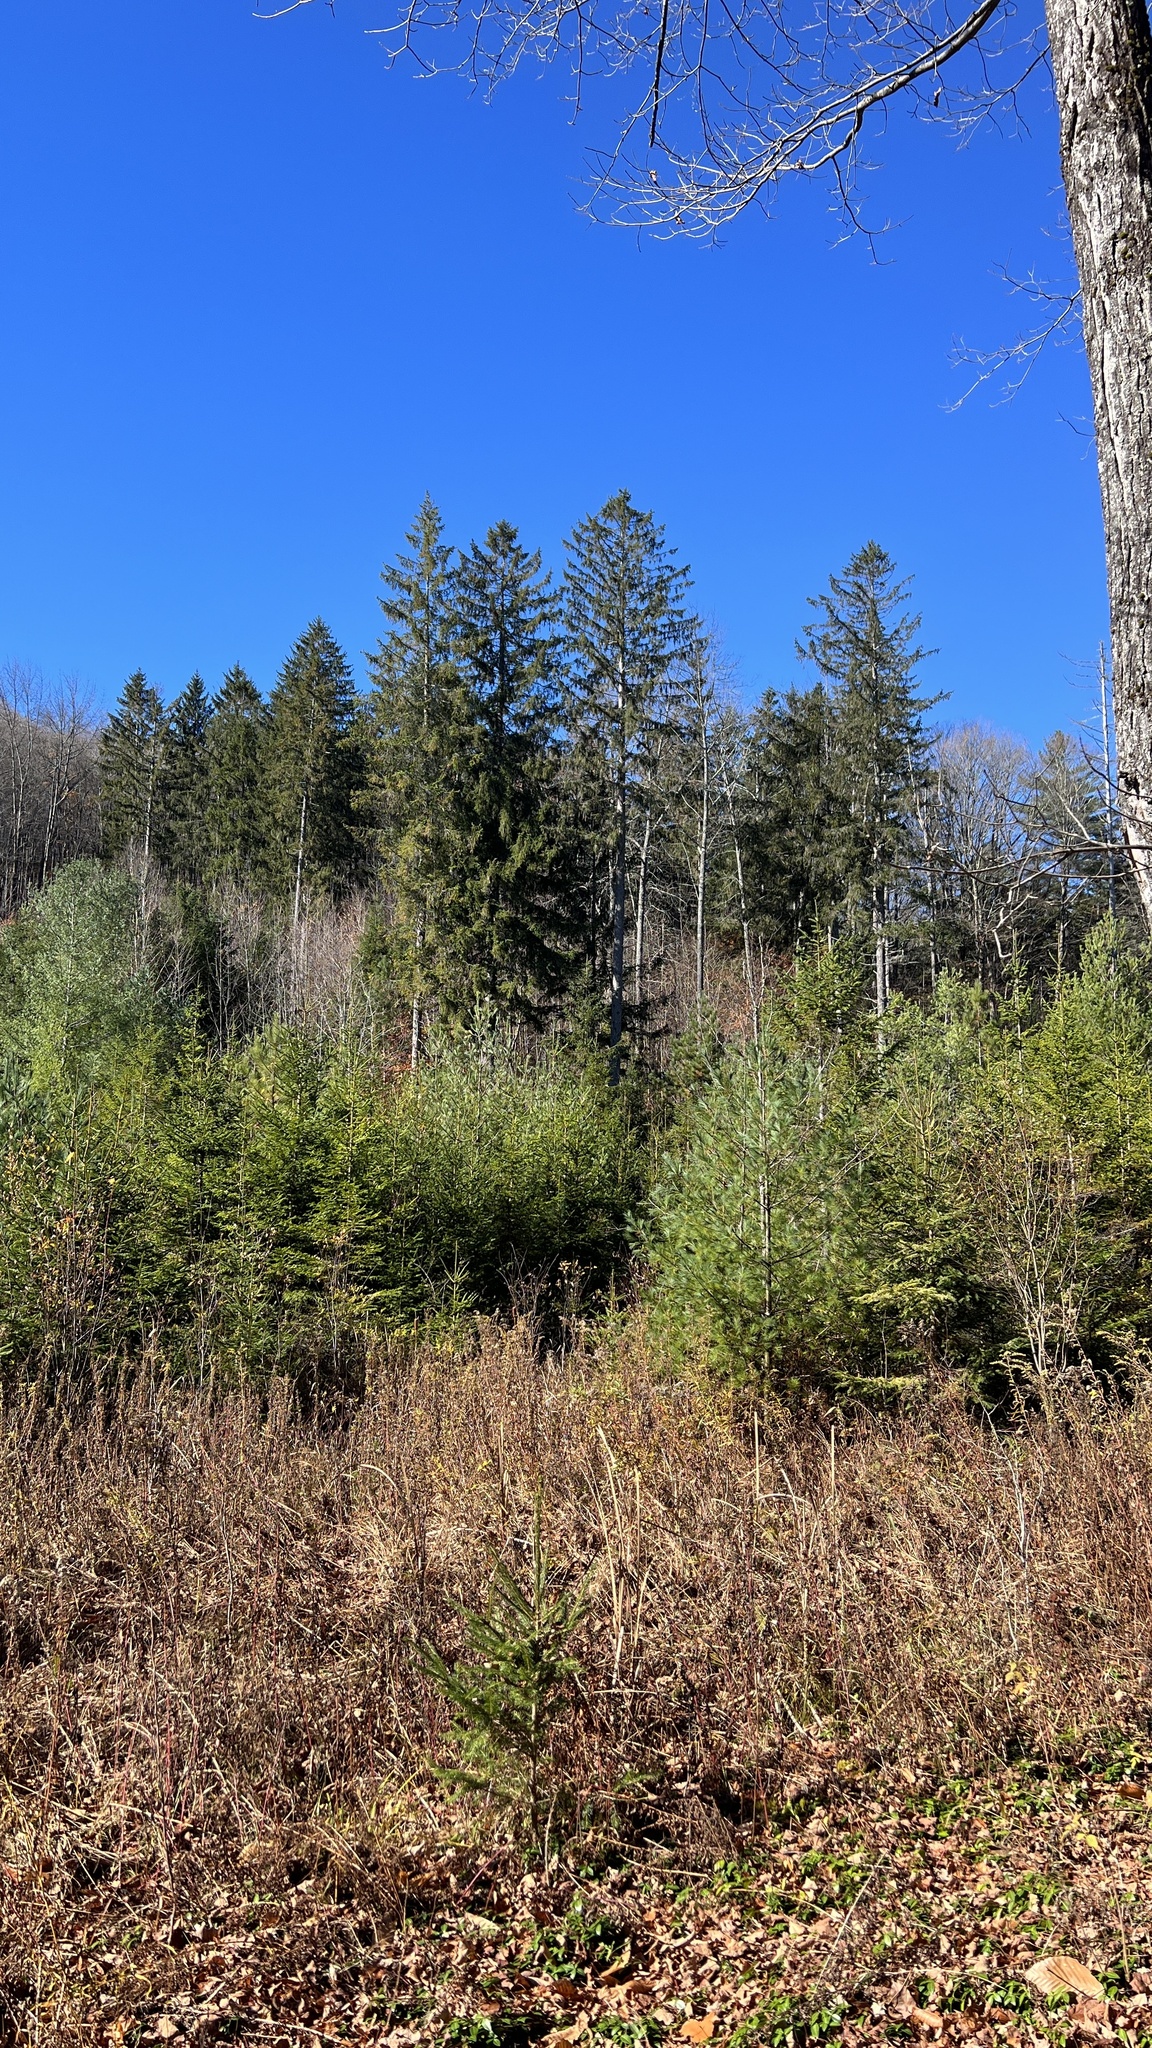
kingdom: Plantae
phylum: Tracheophyta
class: Pinopsida
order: Pinales
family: Pinaceae
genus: Picea
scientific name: Picea rubens
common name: Red spruce
